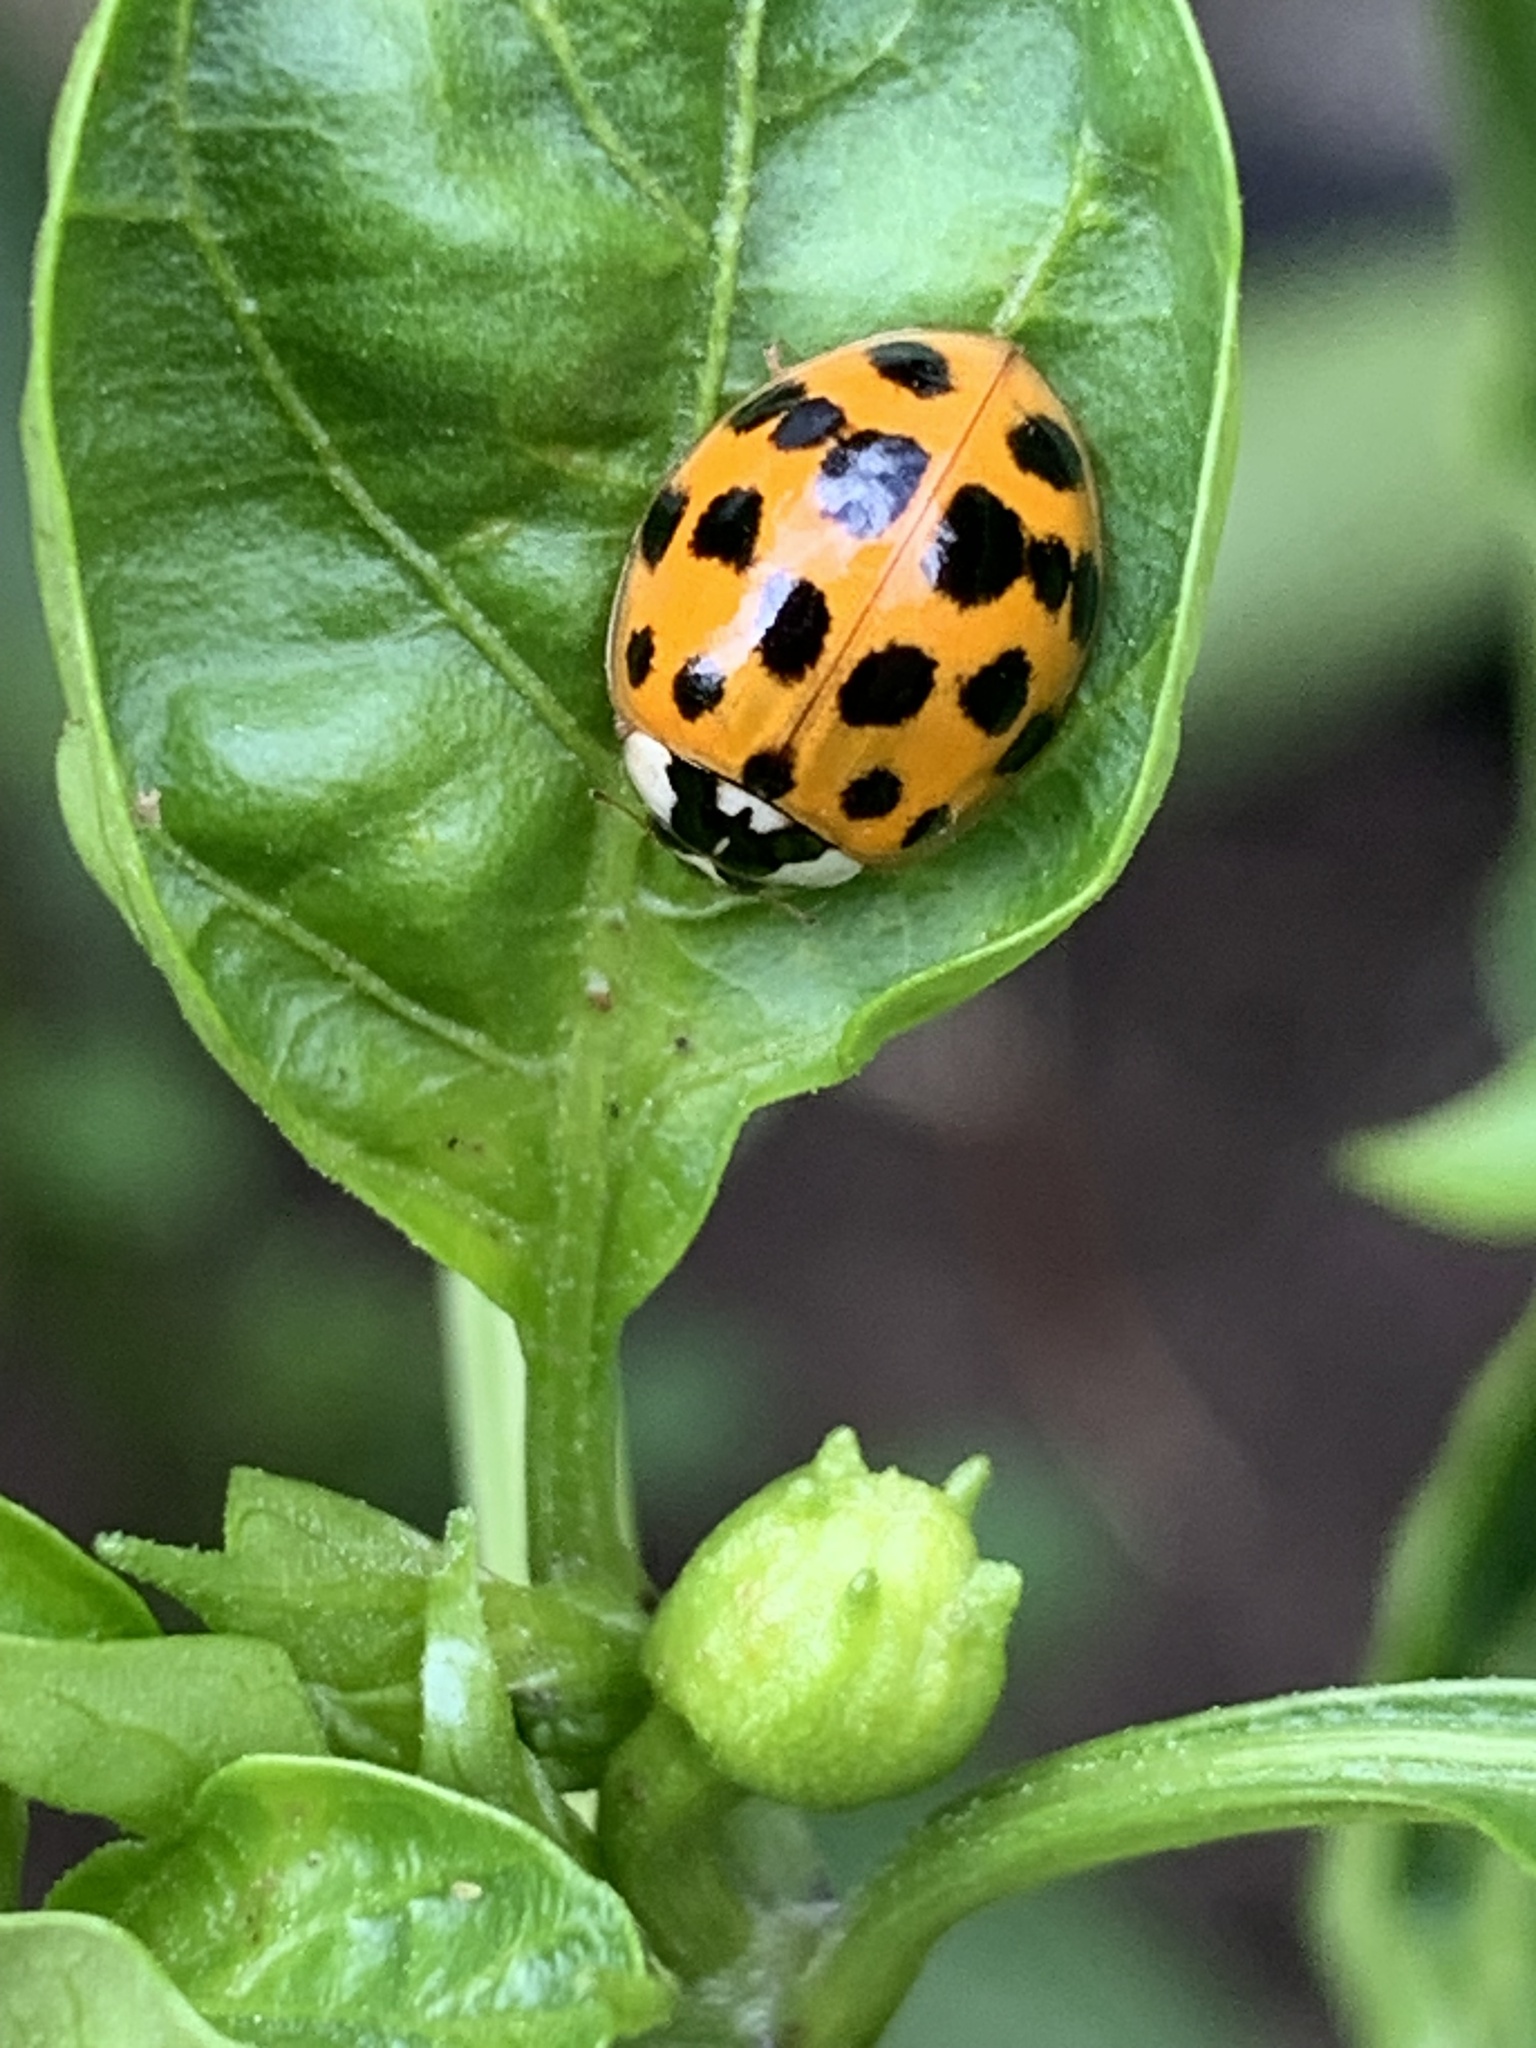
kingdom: Animalia
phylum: Arthropoda
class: Insecta
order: Coleoptera
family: Coccinellidae
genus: Harmonia
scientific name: Harmonia axyridis
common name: Harlequin ladybird
